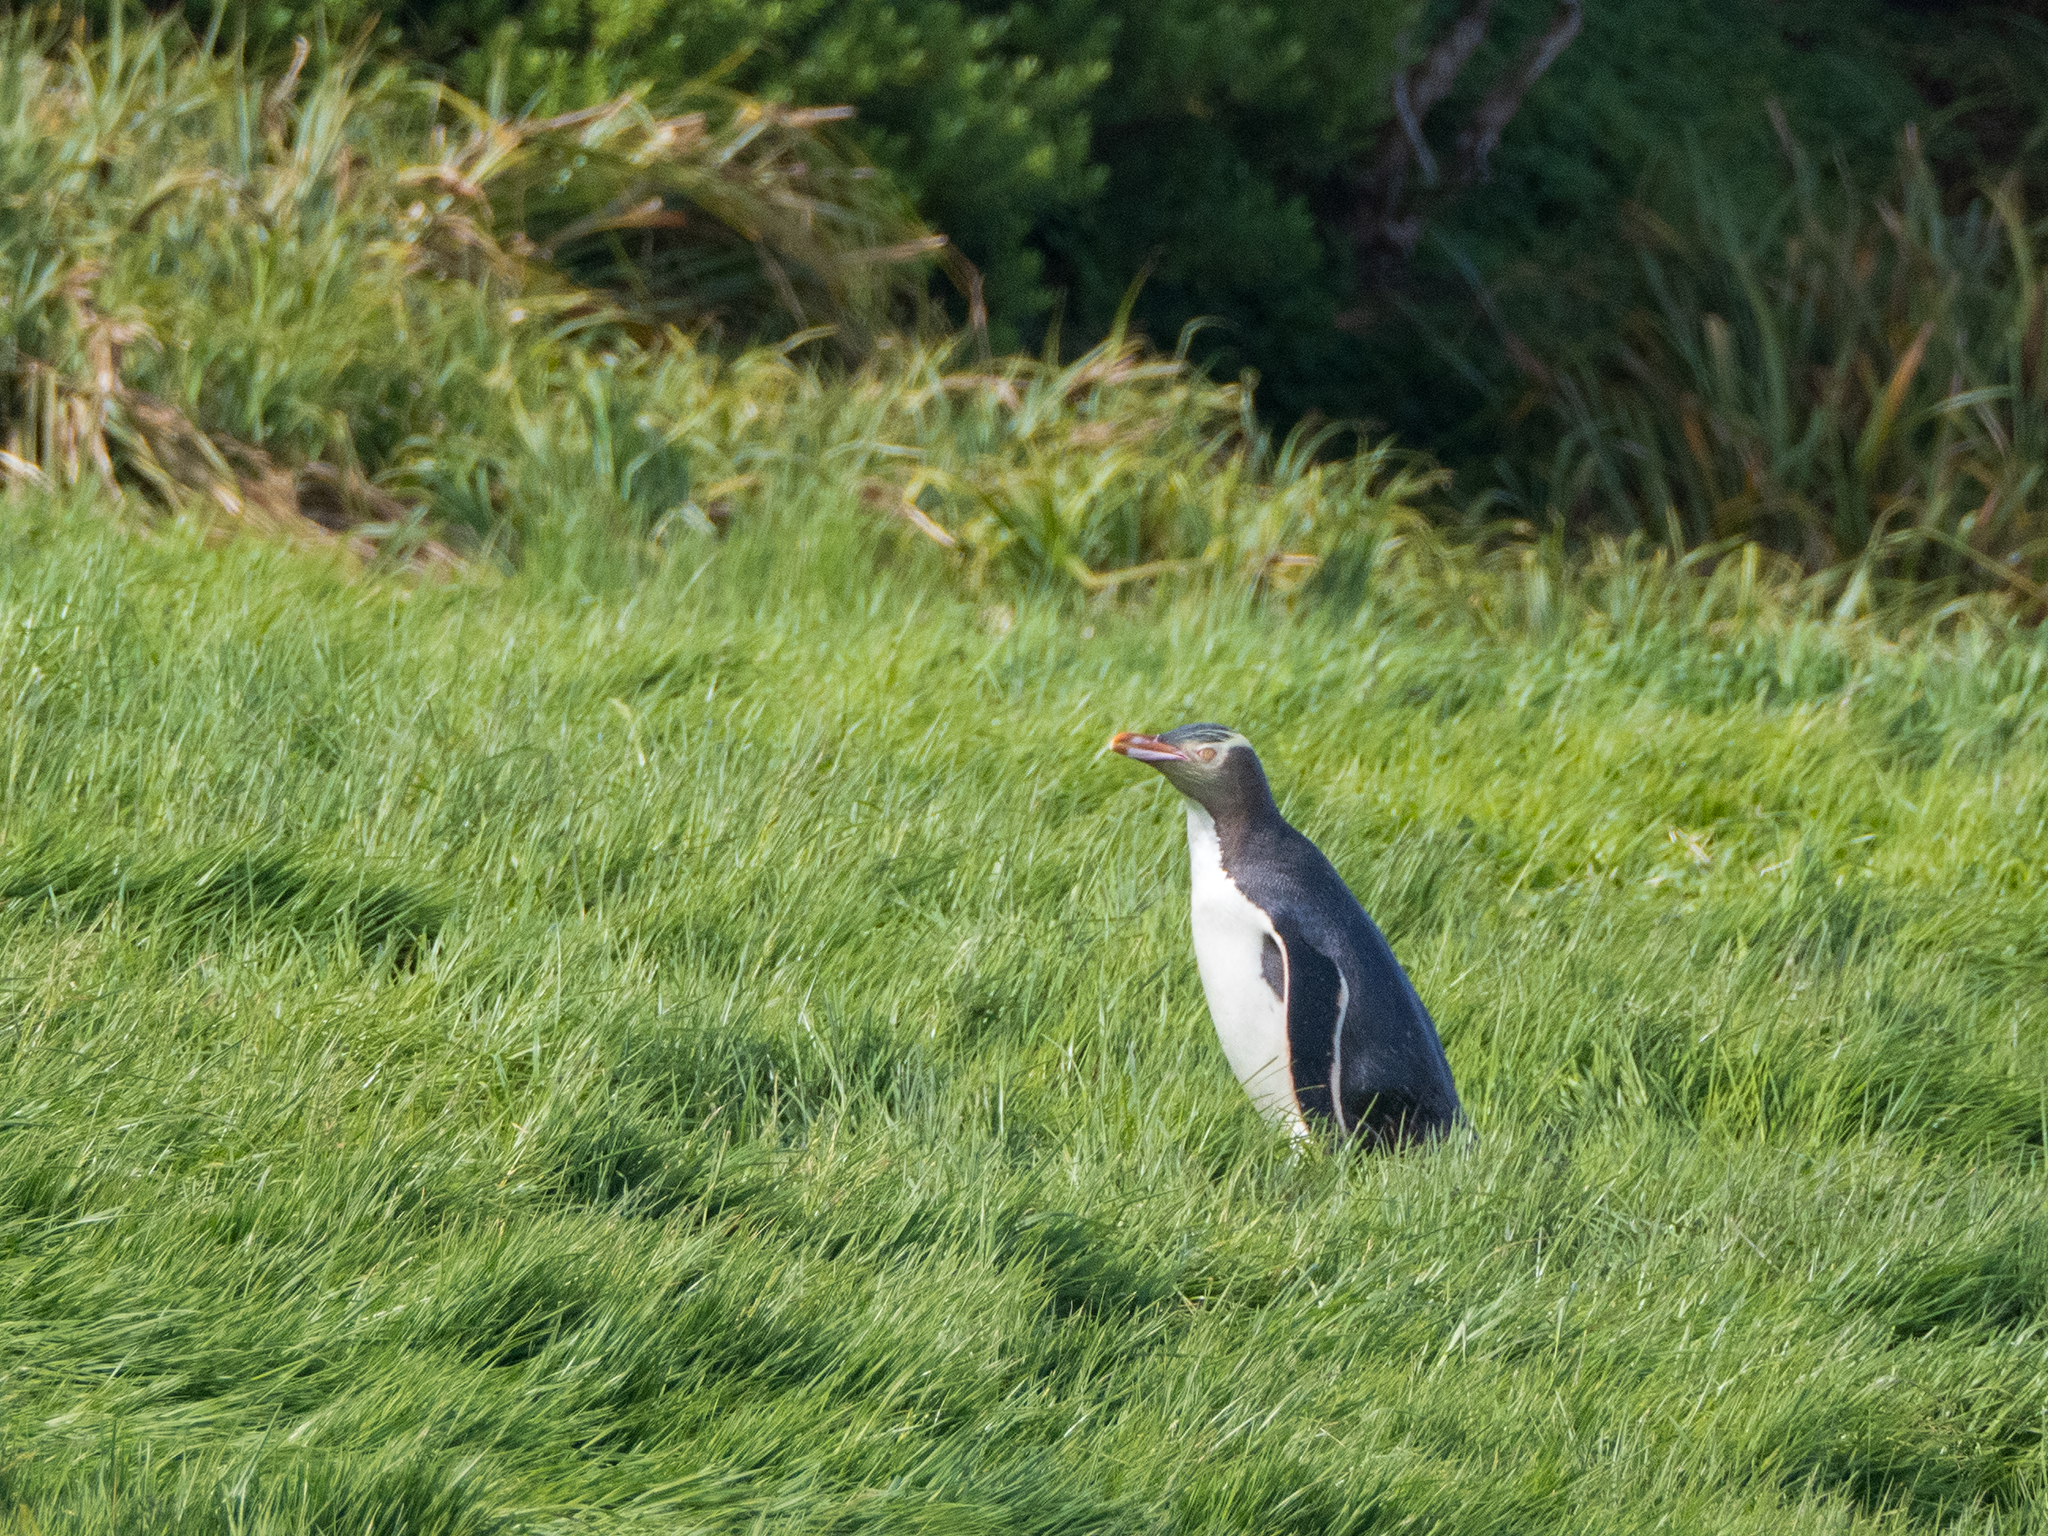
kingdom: Animalia
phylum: Chordata
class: Aves
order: Sphenisciformes
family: Spheniscidae
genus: Megadyptes
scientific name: Megadyptes antipodes
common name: Yellow-eyed penguin
